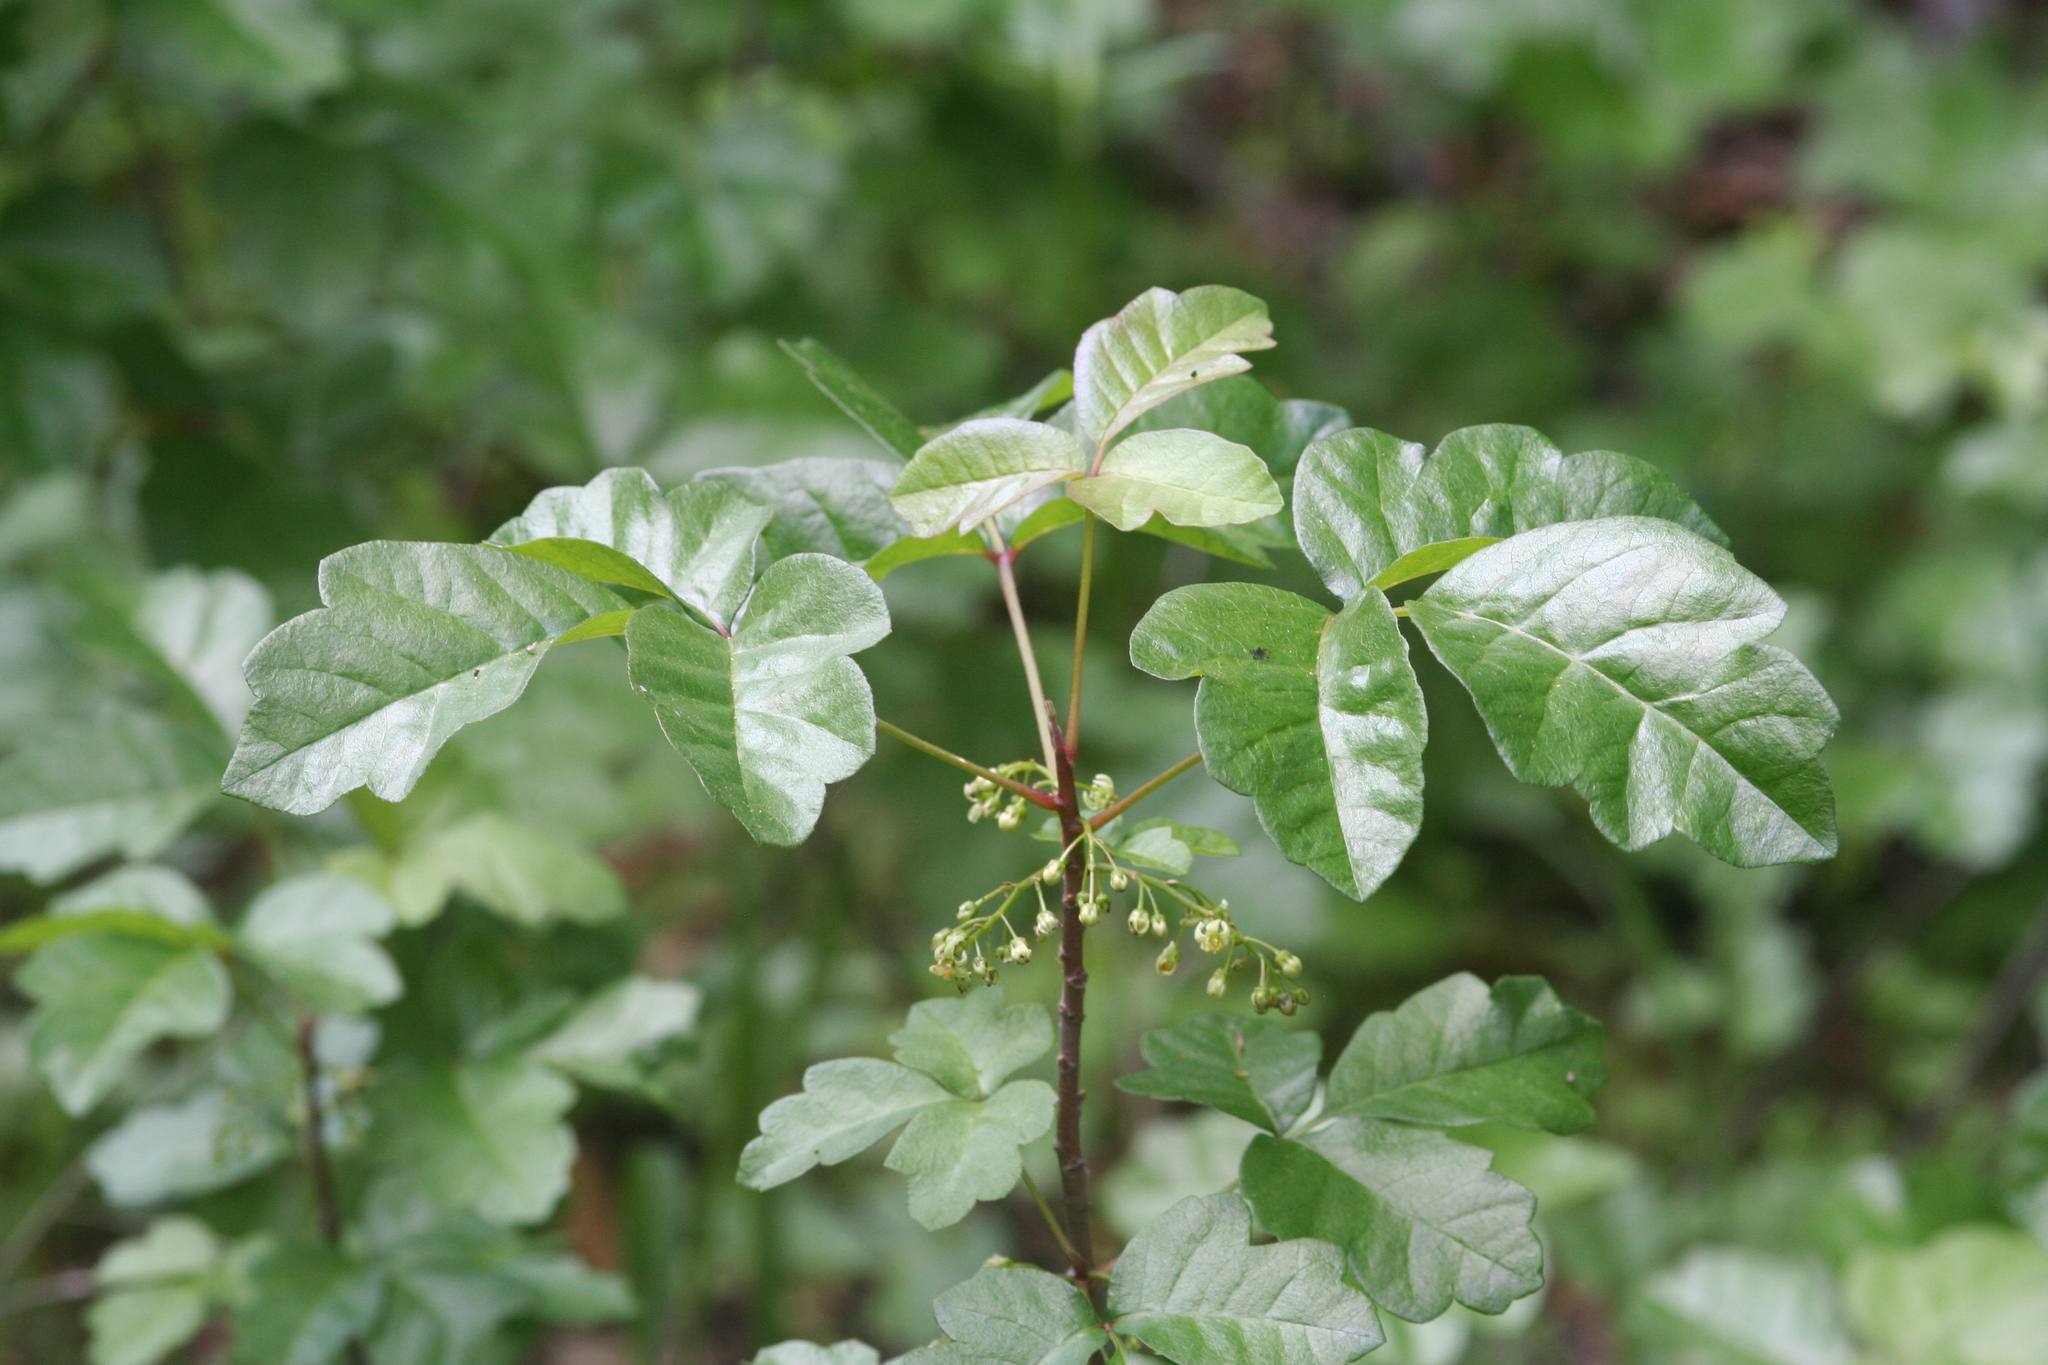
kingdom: Plantae
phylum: Tracheophyta
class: Magnoliopsida
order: Sapindales
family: Anacardiaceae
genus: Toxicodendron
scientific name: Toxicodendron diversilobum
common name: Pacific poison-oak
